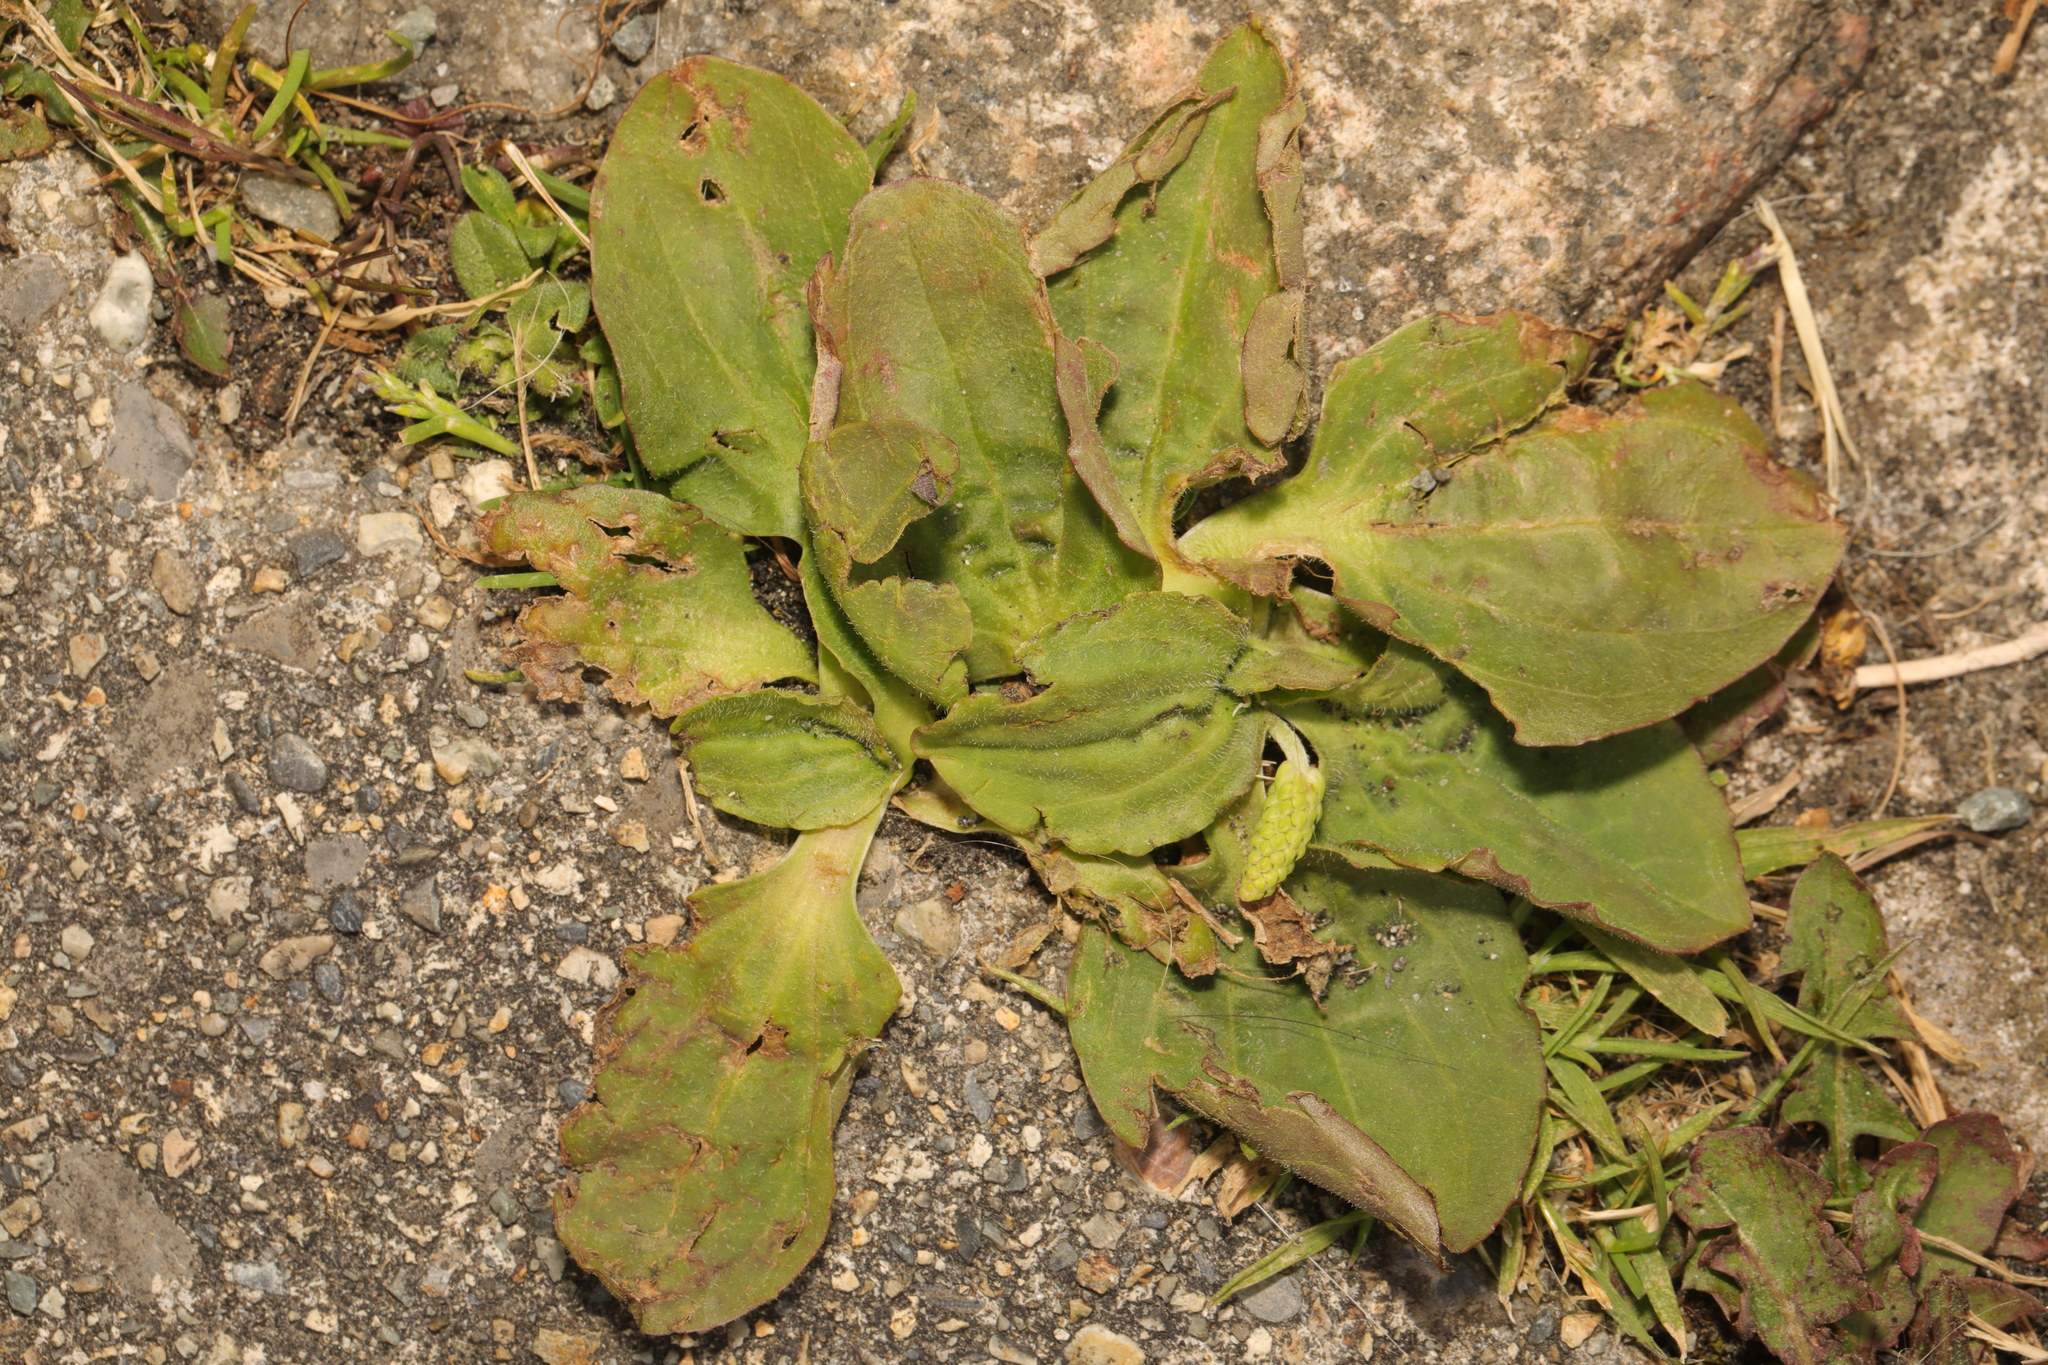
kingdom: Plantae
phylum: Tracheophyta
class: Magnoliopsida
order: Lamiales
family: Plantaginaceae
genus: Plantago
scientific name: Plantago major
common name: Common plantain
